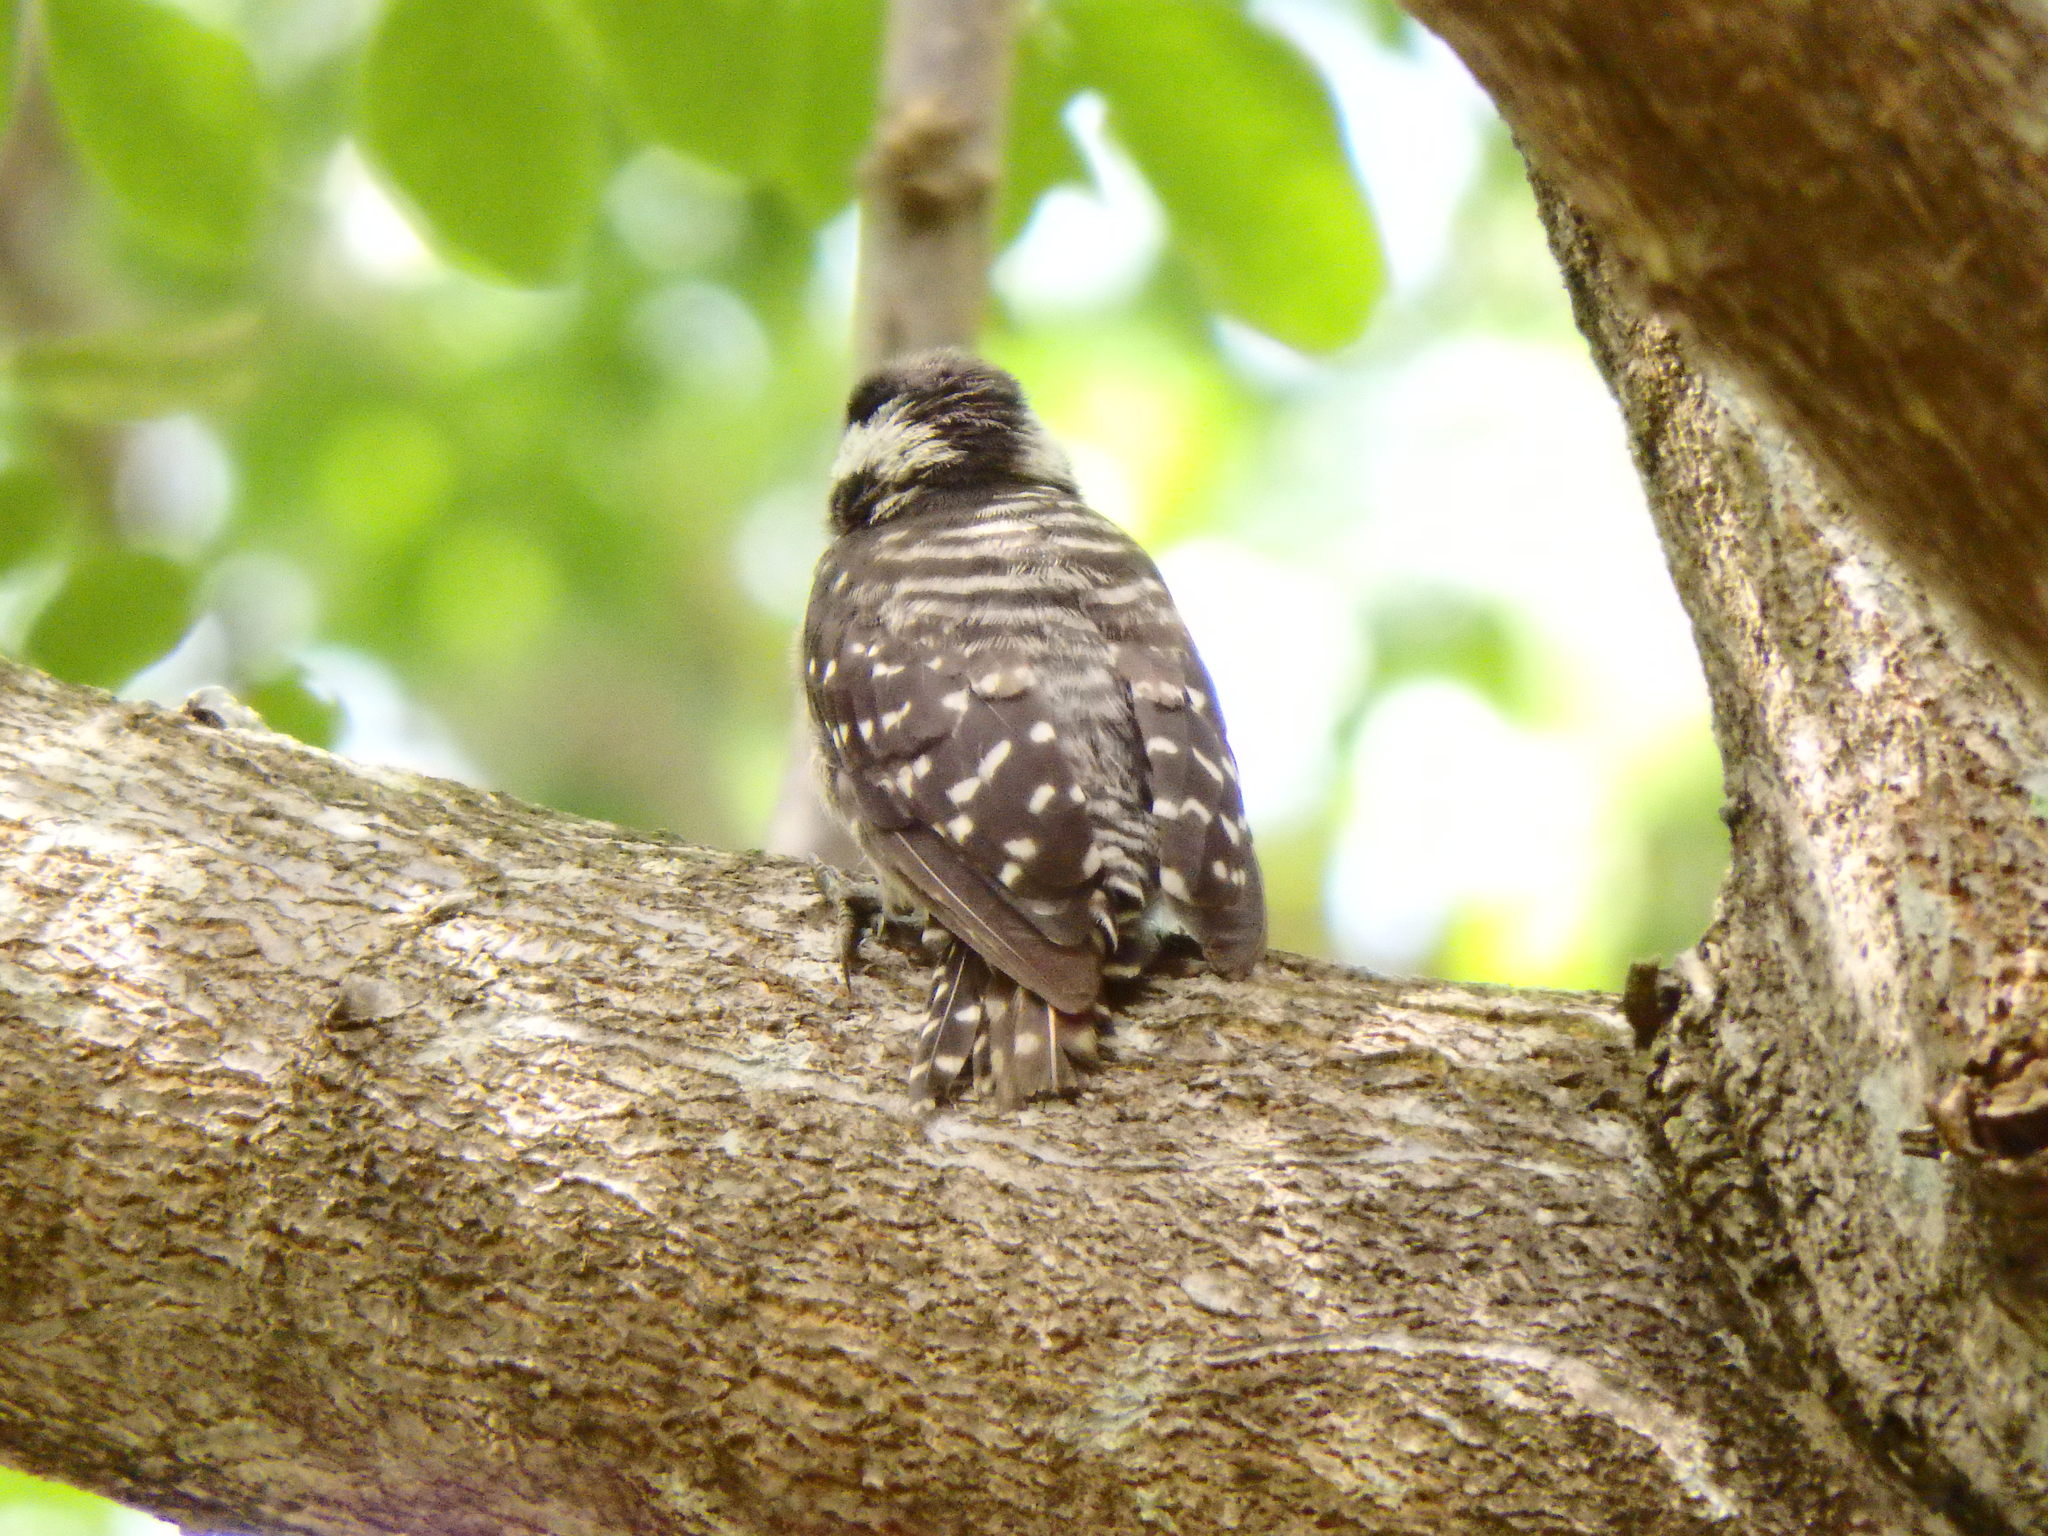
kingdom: Animalia
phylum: Chordata
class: Aves
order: Piciformes
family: Picidae
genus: Yungipicus
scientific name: Yungipicus moluccensis
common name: Sunda pygmy woodpecker
